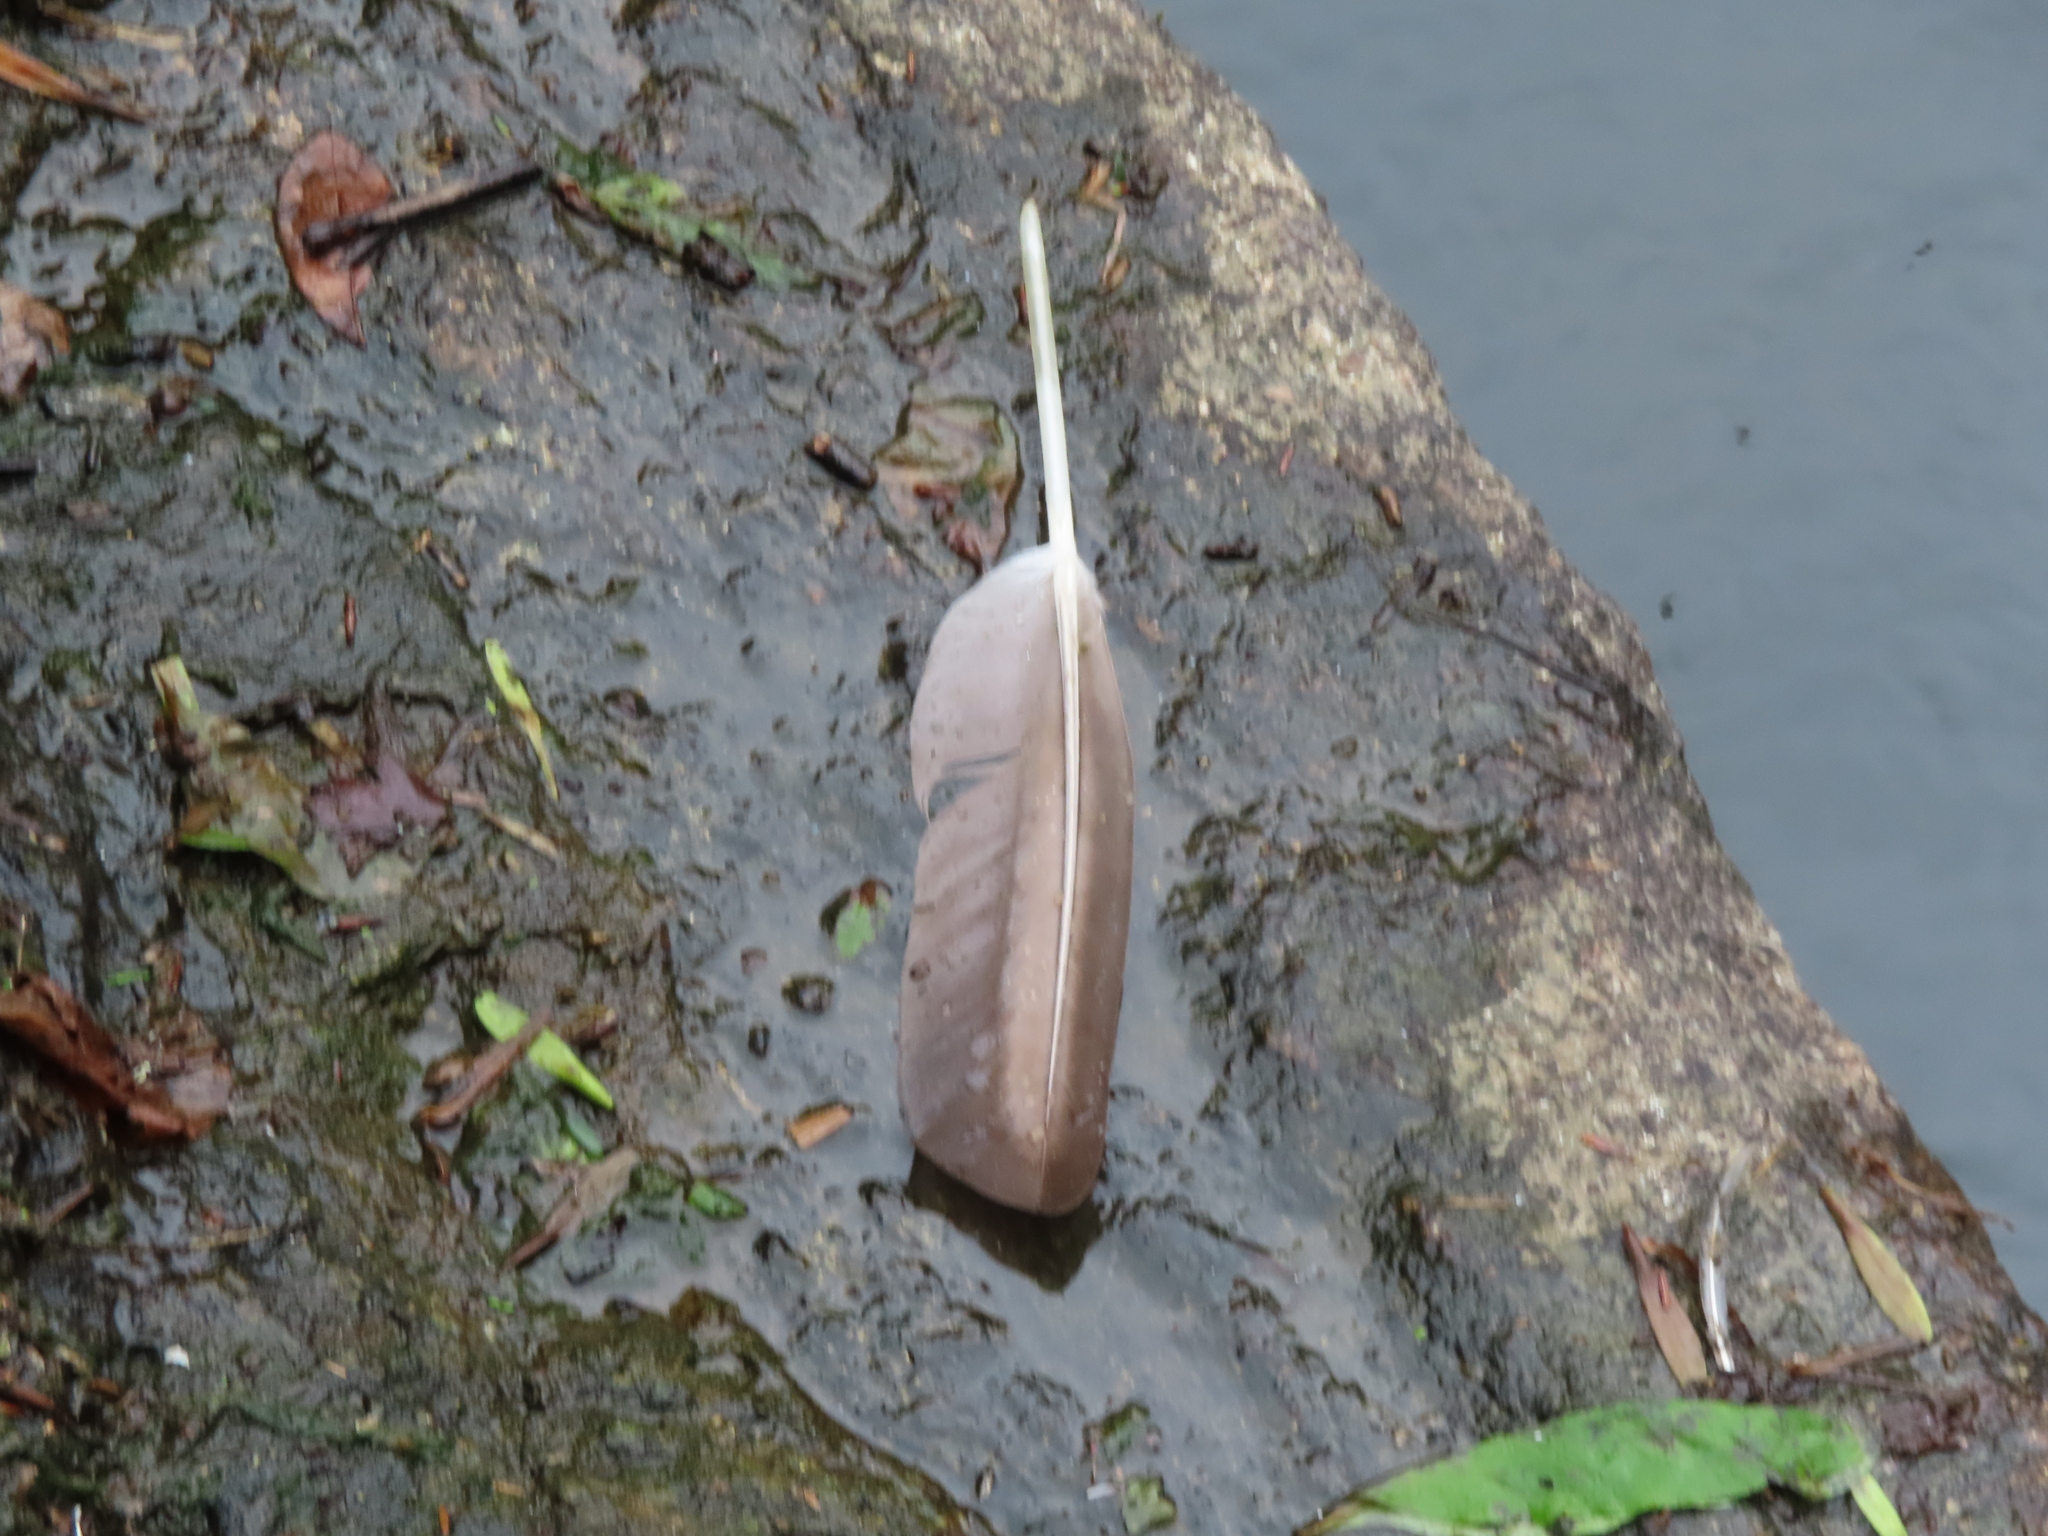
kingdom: Animalia
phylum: Chordata
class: Aves
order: Anseriformes
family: Anatidae
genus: Branta
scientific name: Branta canadensis
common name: Canada goose
